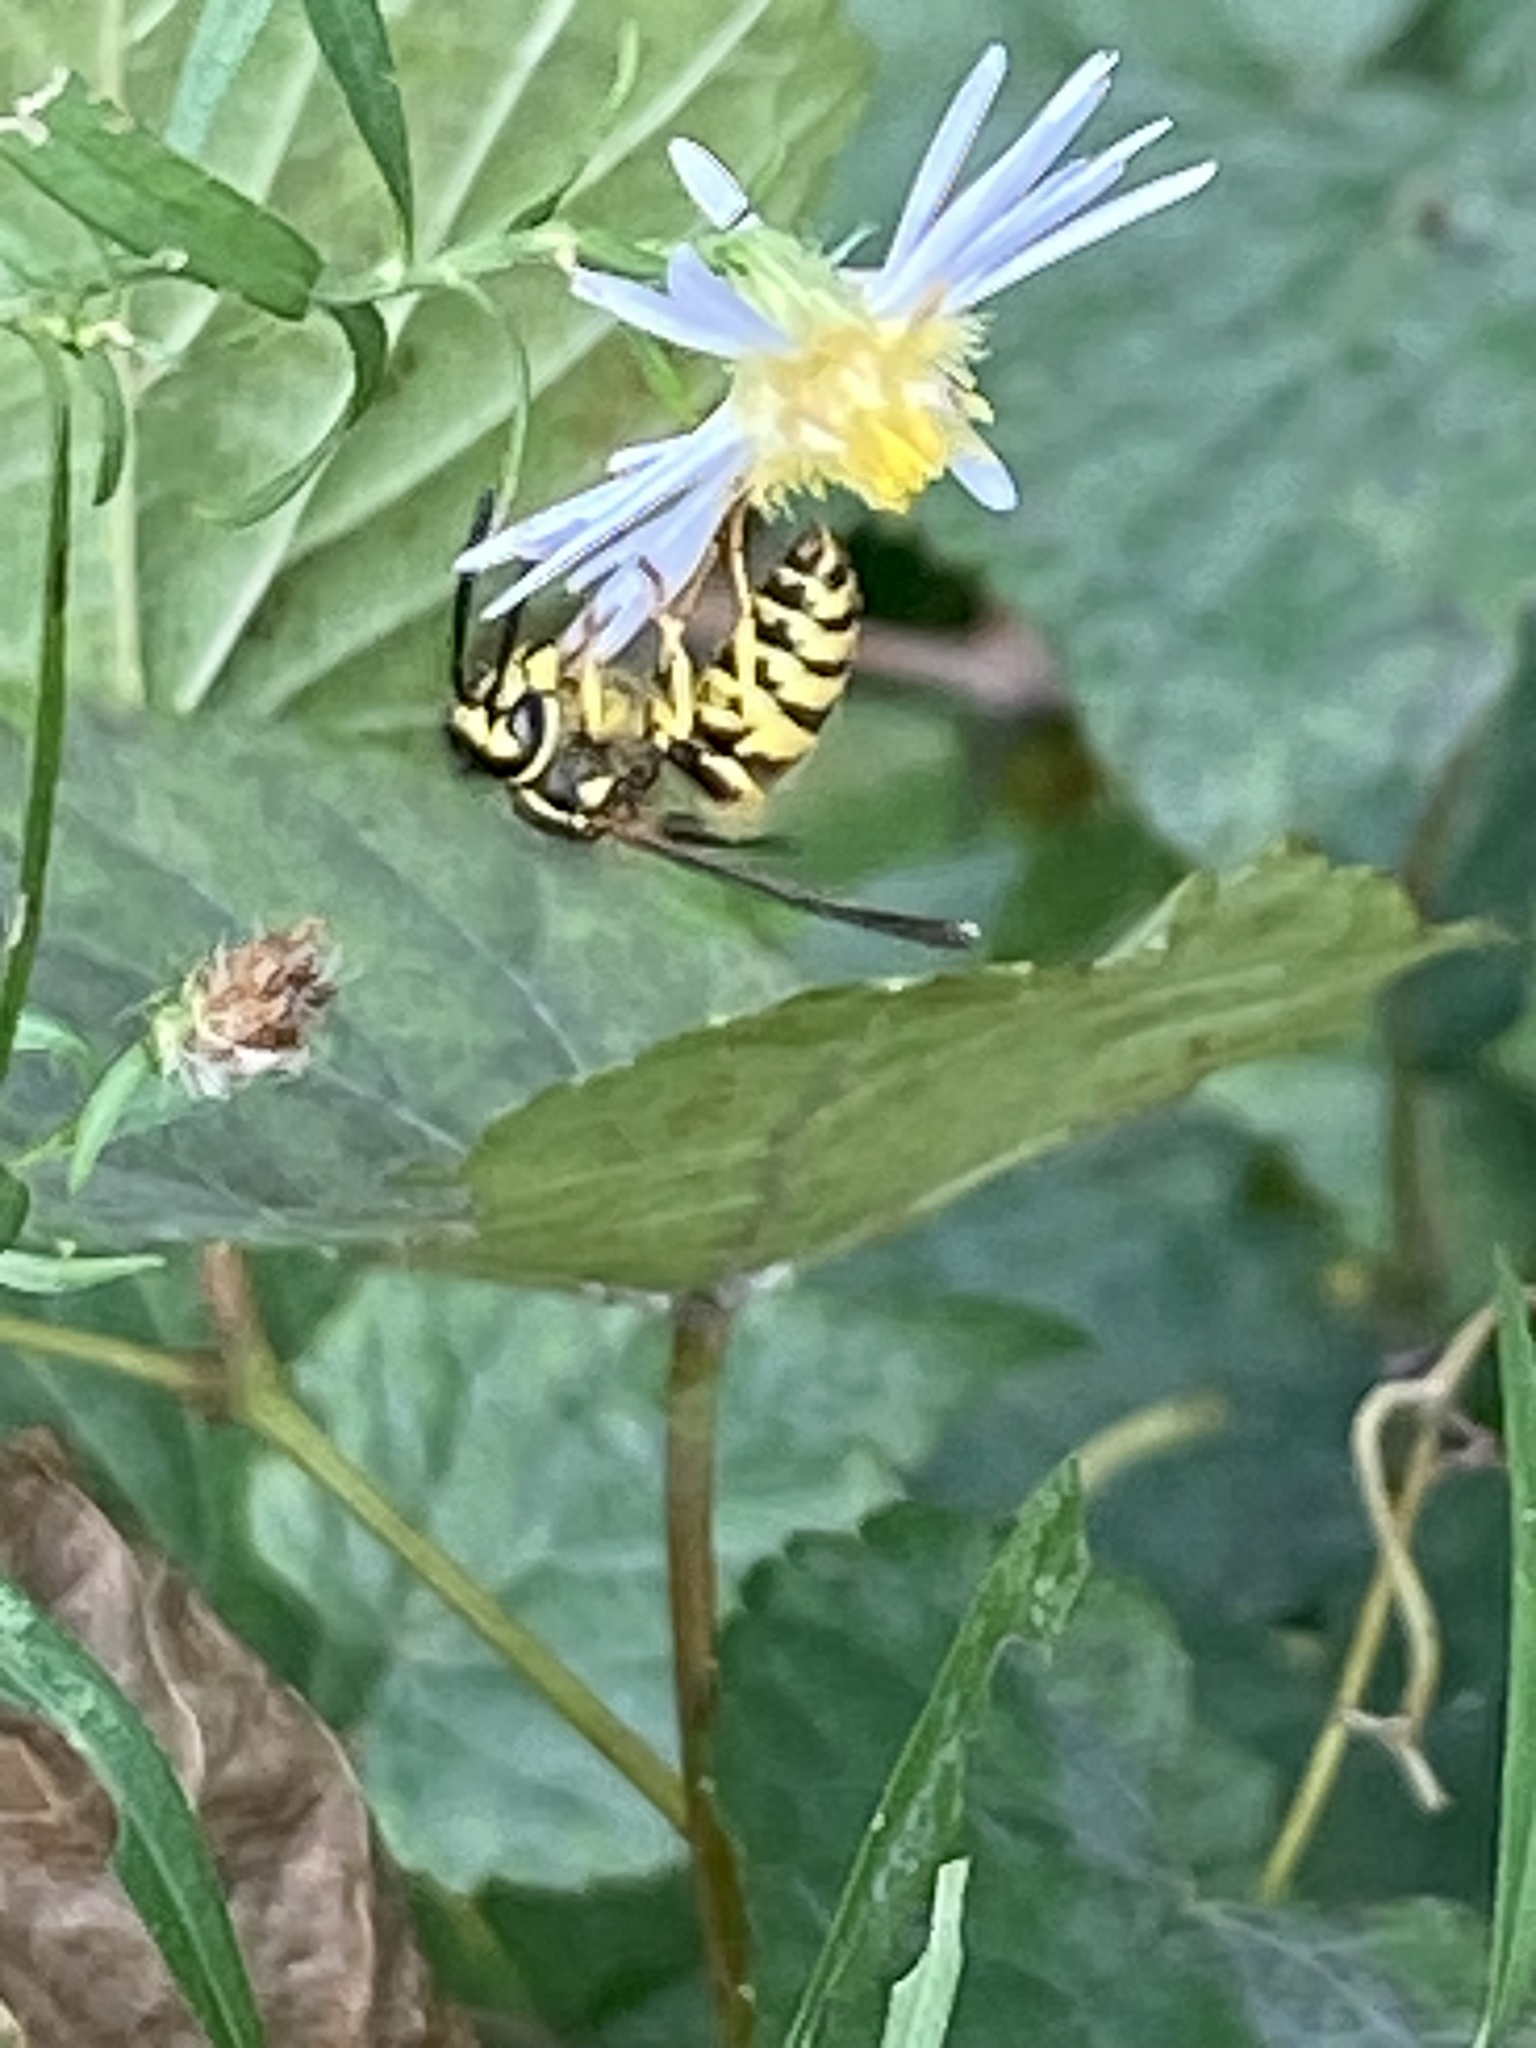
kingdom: Animalia
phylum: Arthropoda
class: Insecta
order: Hymenoptera
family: Vespidae
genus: Vespula
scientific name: Vespula maculifrons
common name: Eastern yellowjacket
